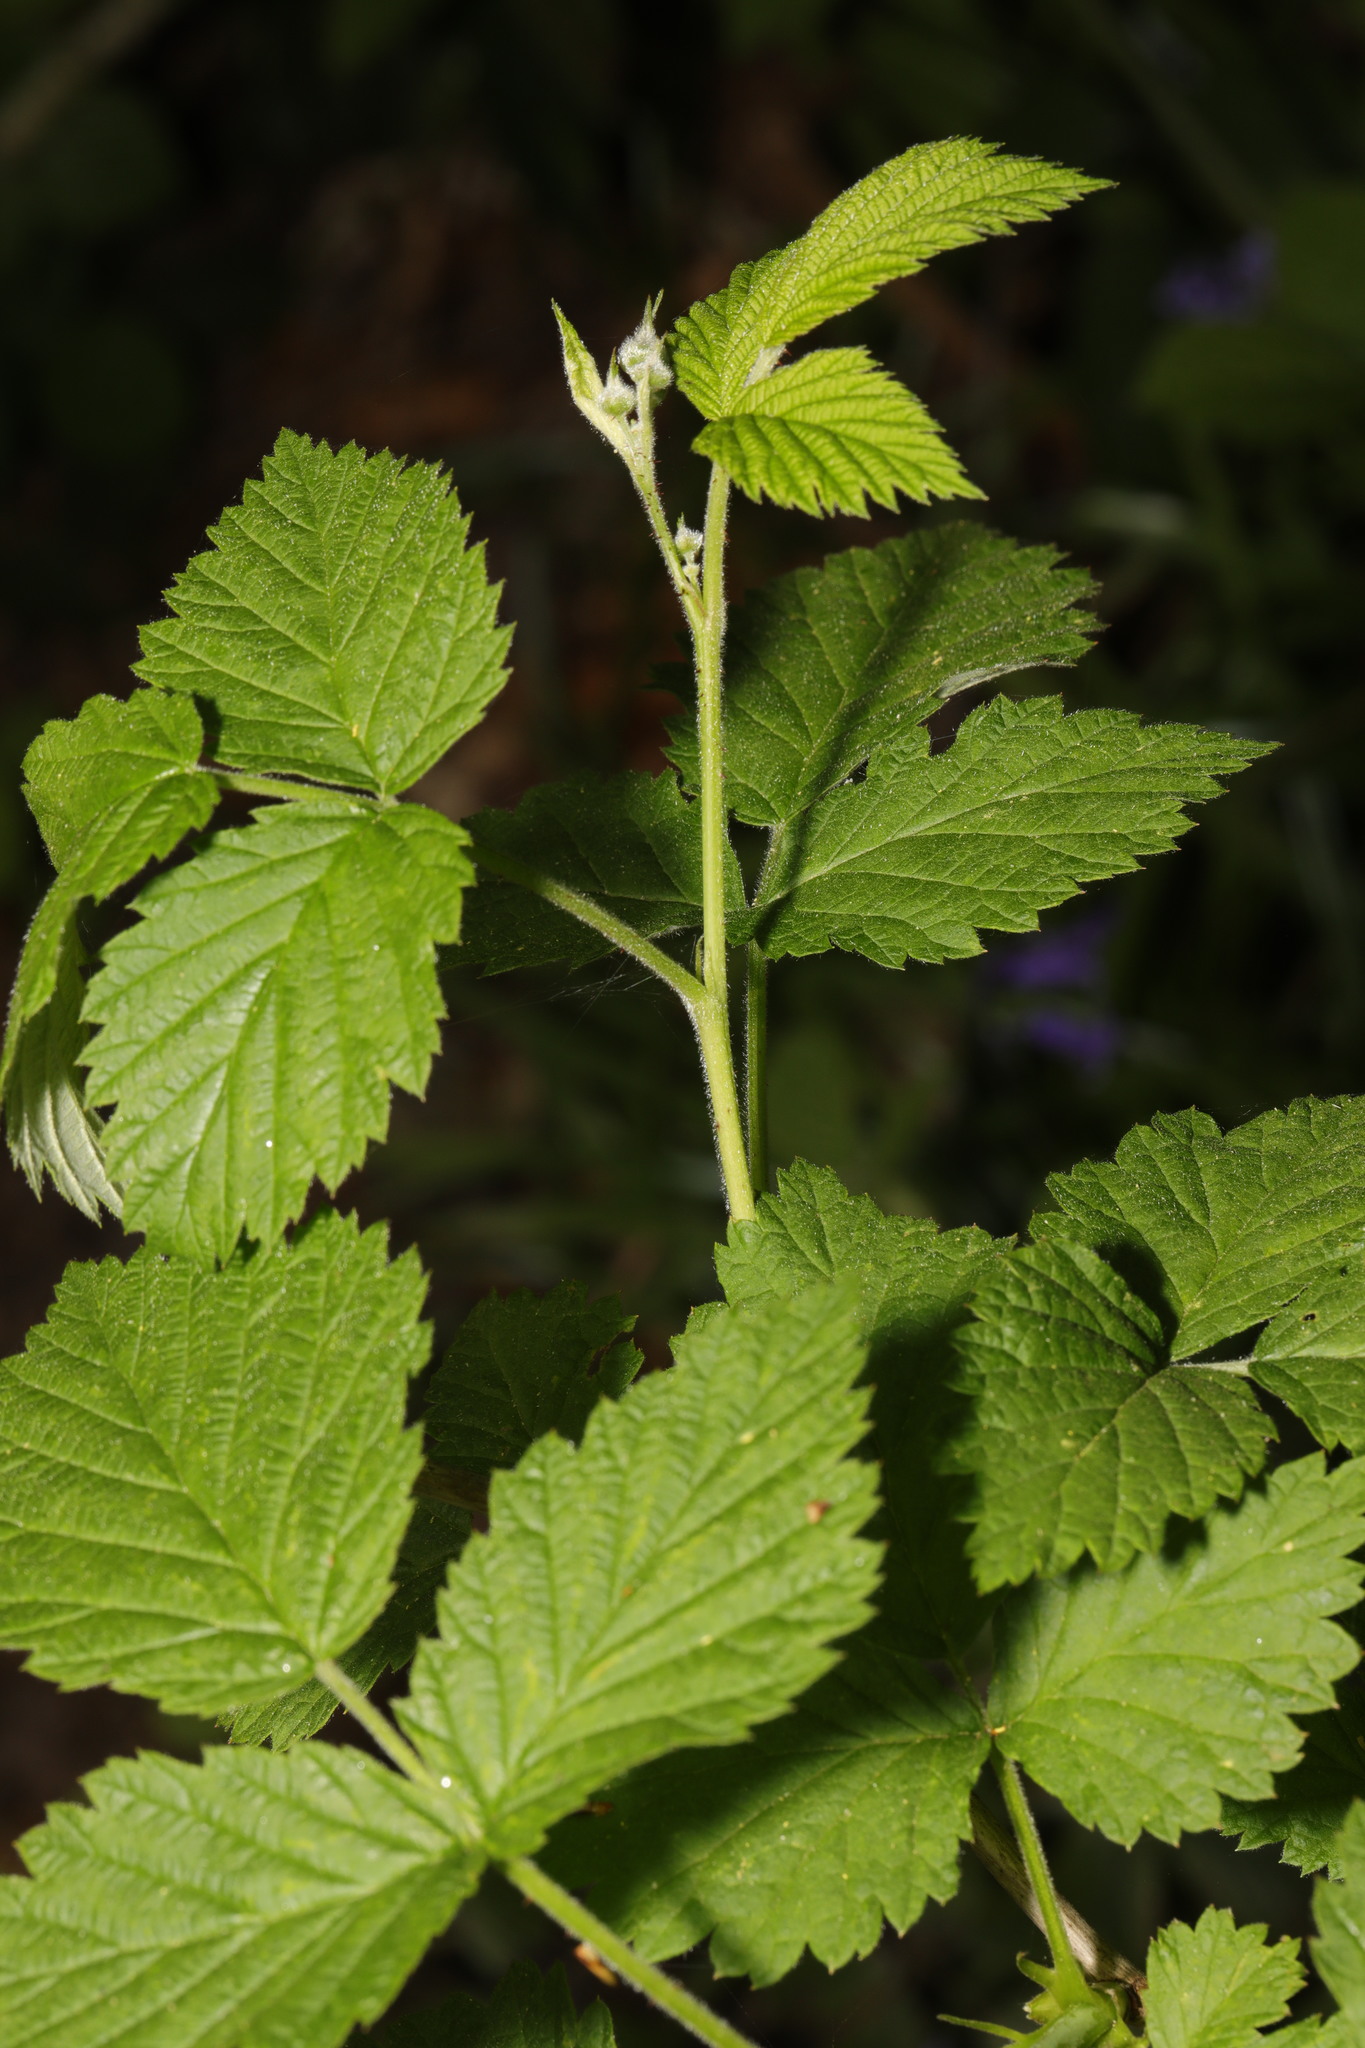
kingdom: Plantae
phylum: Tracheophyta
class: Magnoliopsida
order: Rosales
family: Rosaceae
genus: Rubus
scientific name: Rubus idaeus
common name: Raspberry
